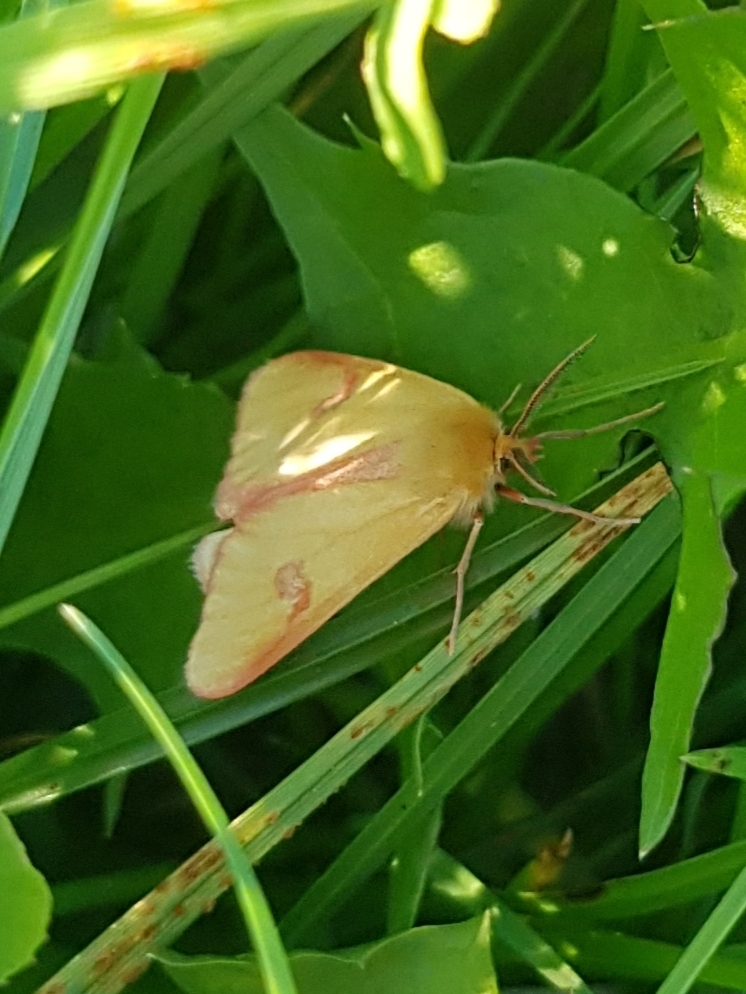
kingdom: Animalia
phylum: Arthropoda
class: Insecta
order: Lepidoptera
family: Erebidae
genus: Diacrisia
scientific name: Diacrisia sannio
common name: Clouded buff
